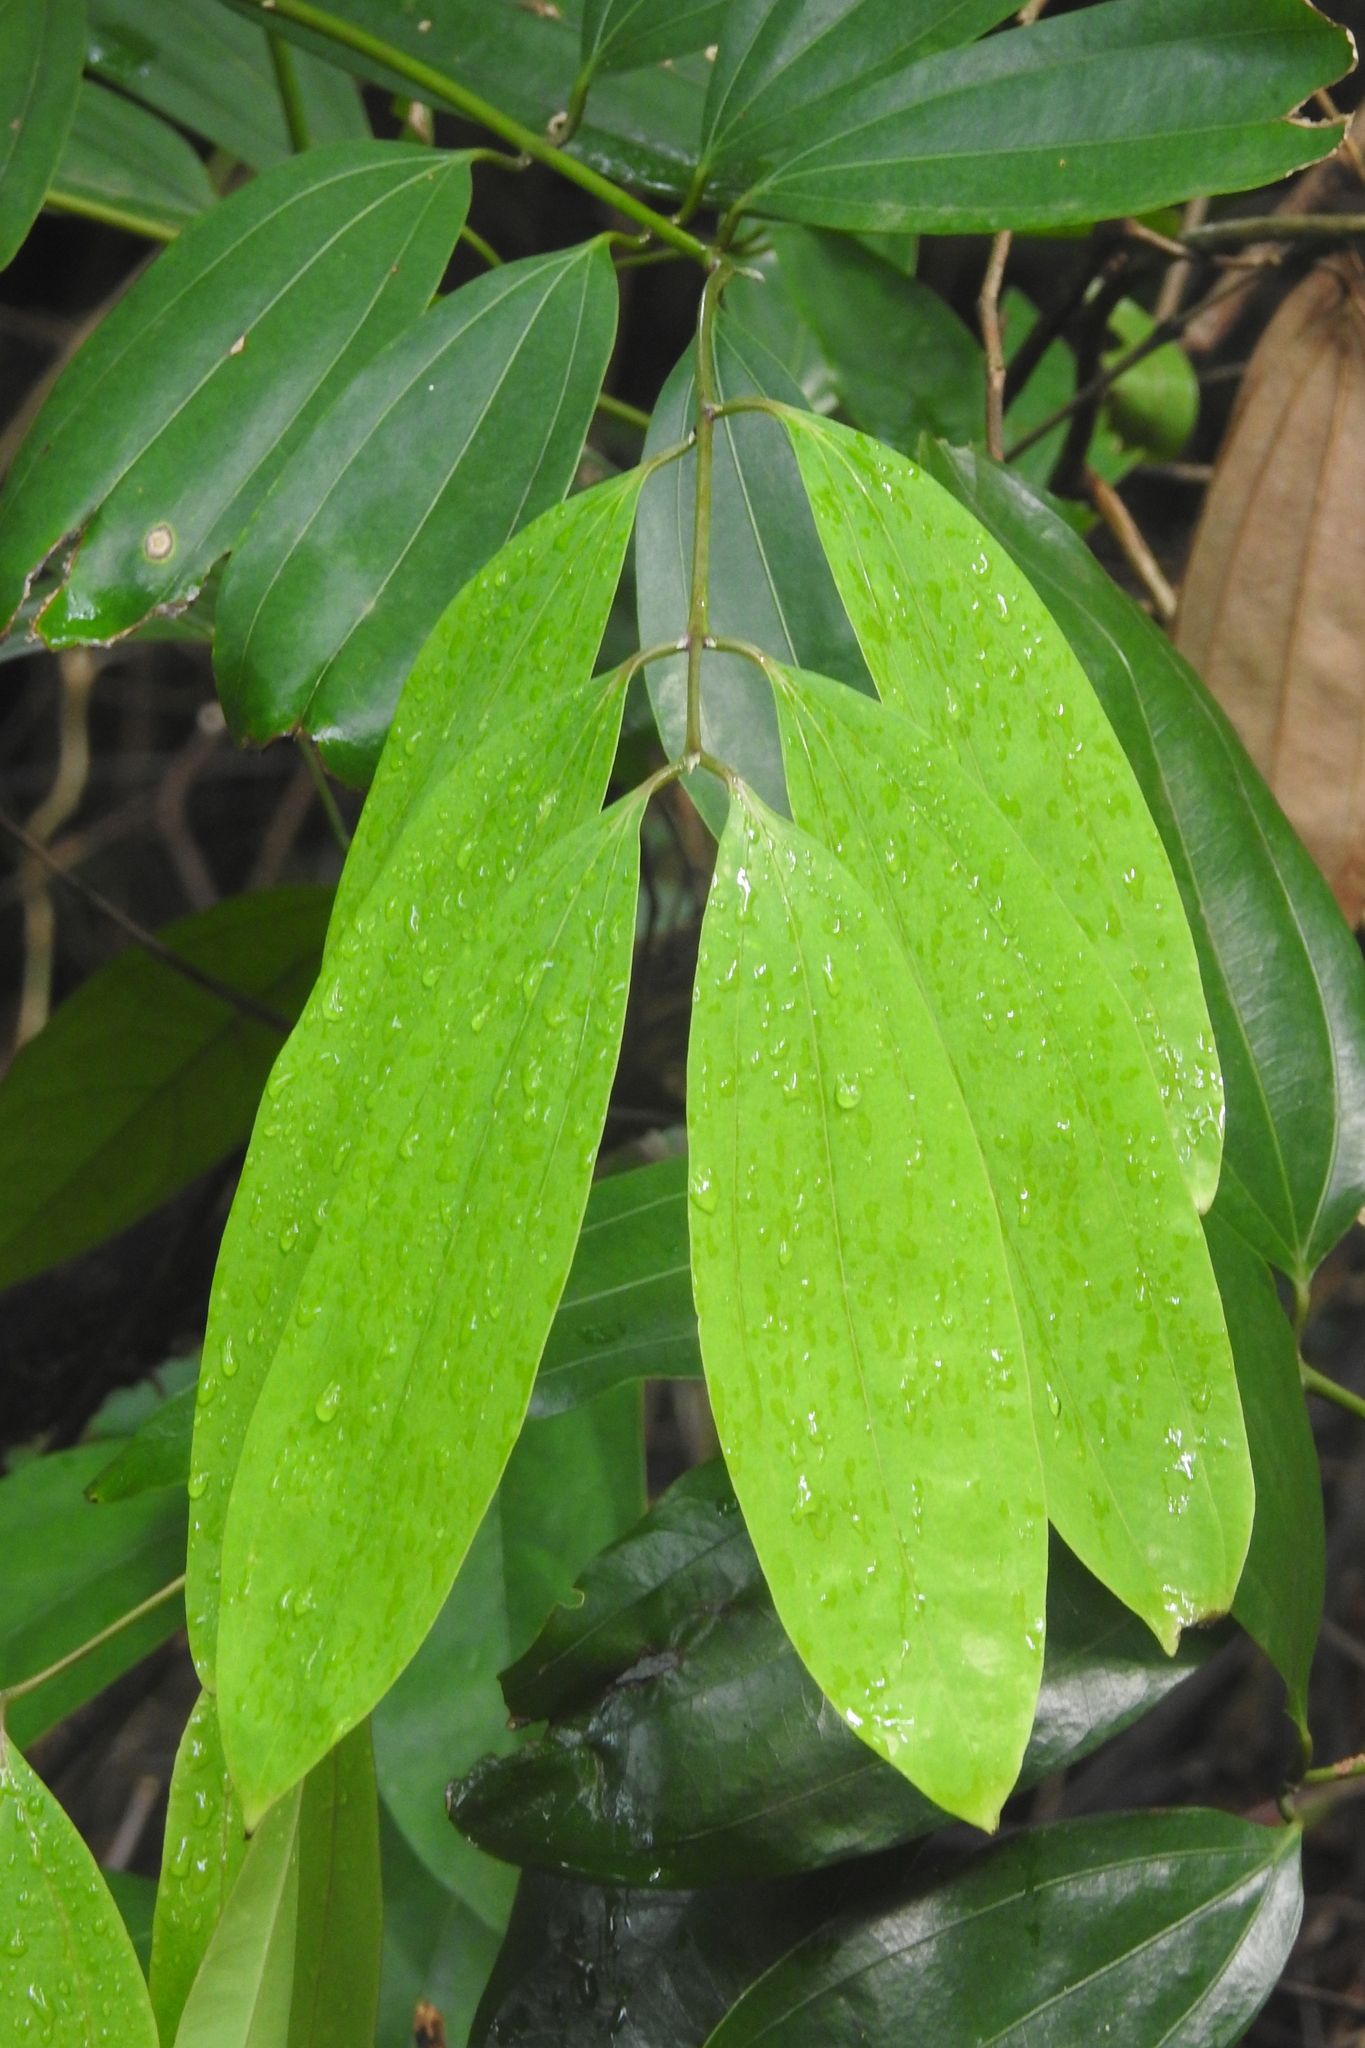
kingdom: Plantae
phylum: Tracheophyta
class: Magnoliopsida
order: Laurales
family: Lauraceae
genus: Cinnamomum
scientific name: Cinnamomum iners
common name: Wild cinnamon
